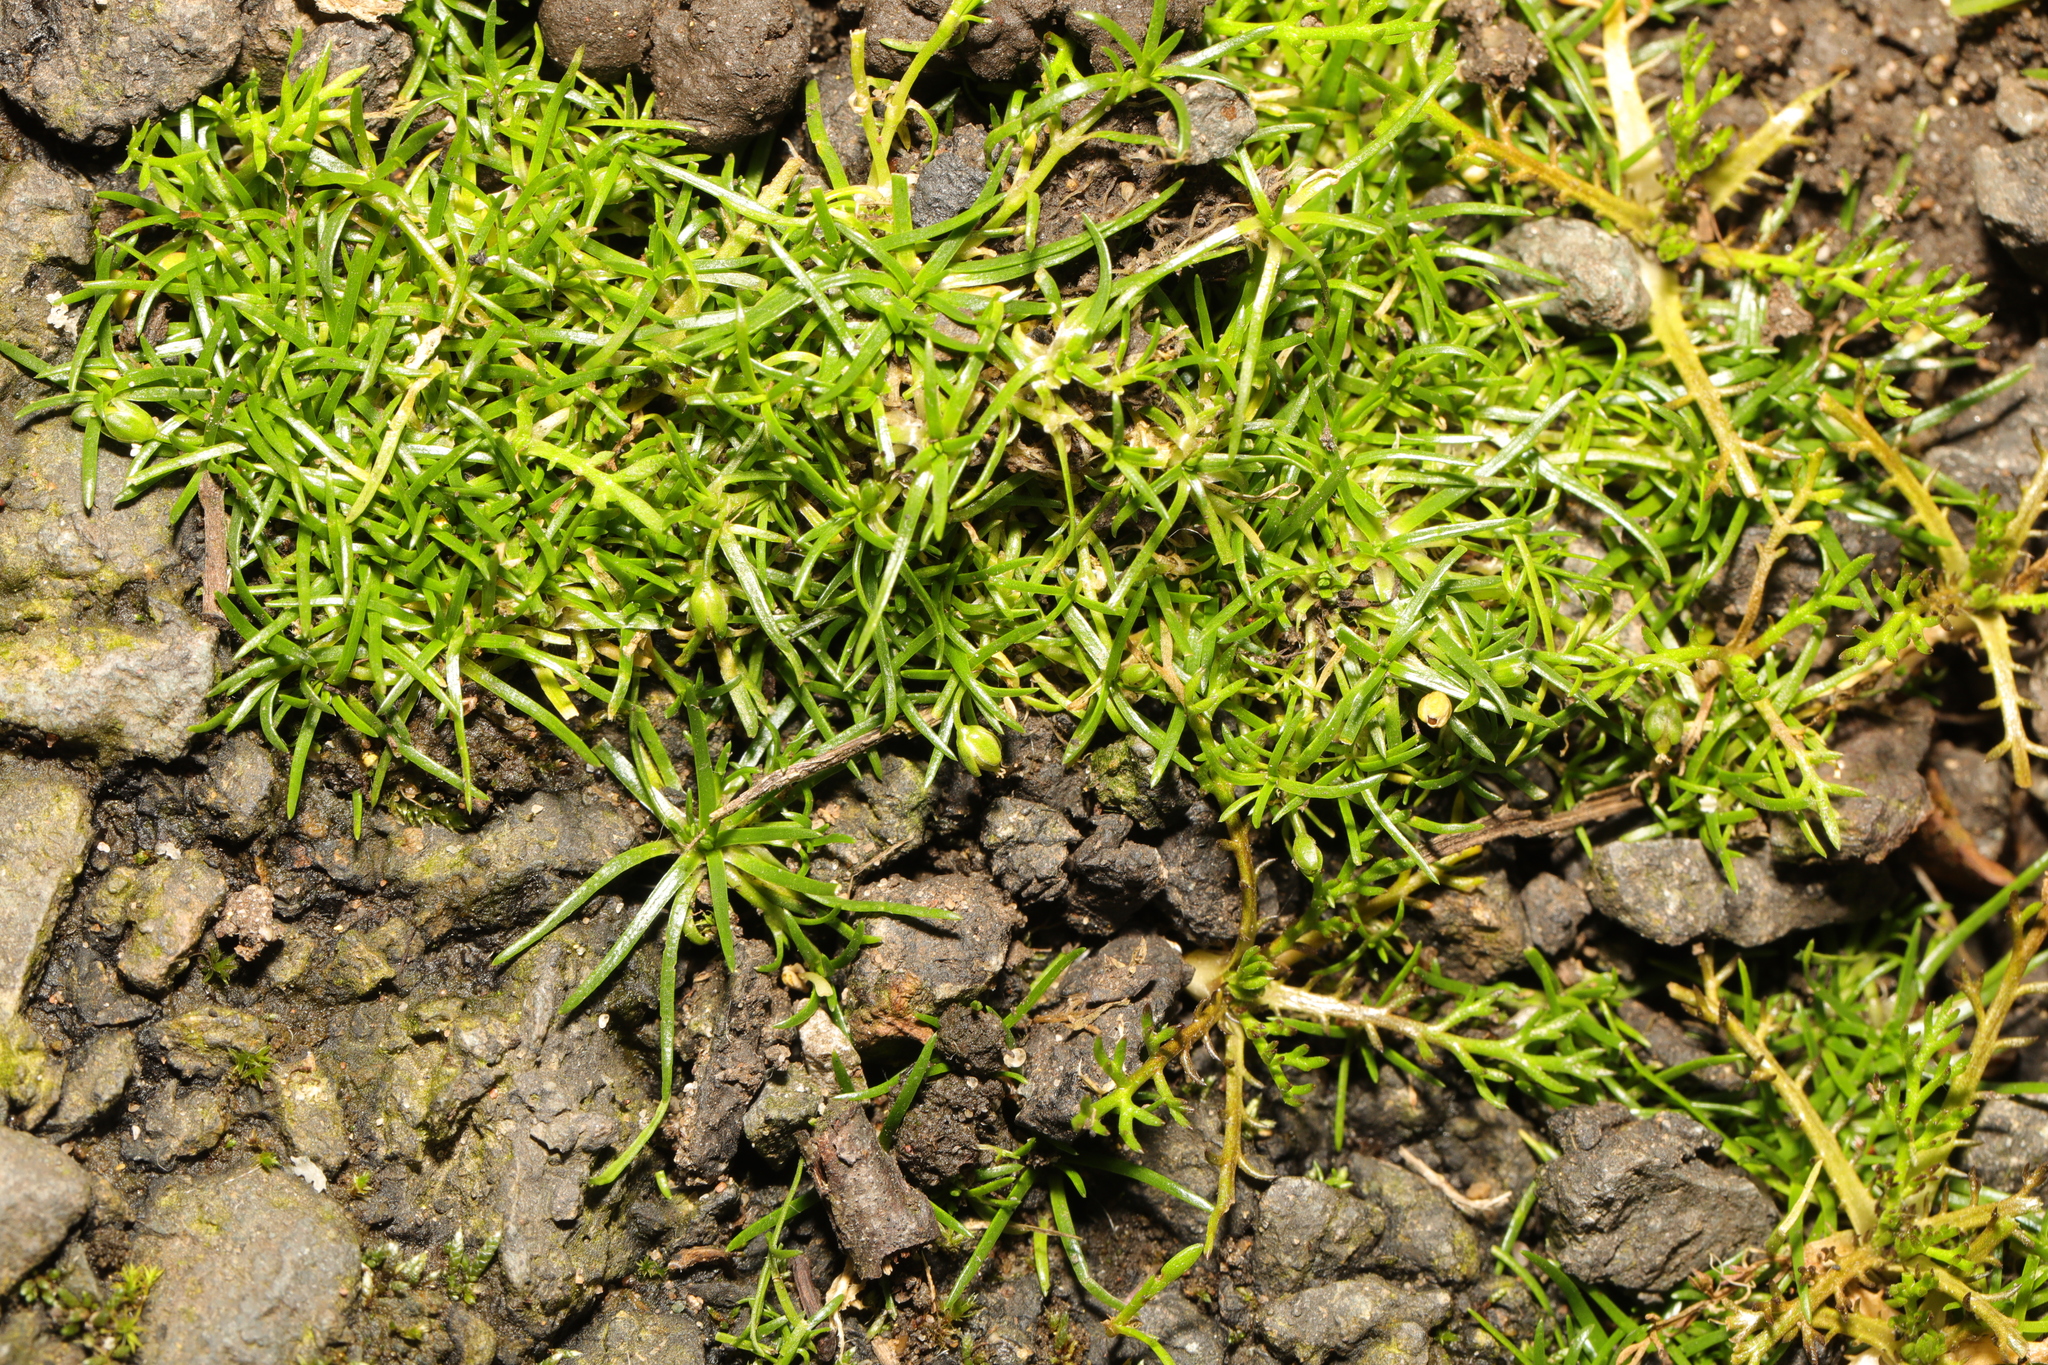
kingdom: Plantae
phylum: Tracheophyta
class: Magnoliopsida
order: Caryophyllales
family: Caryophyllaceae
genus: Sagina
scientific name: Sagina procumbens
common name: Procumbent pearlwort
